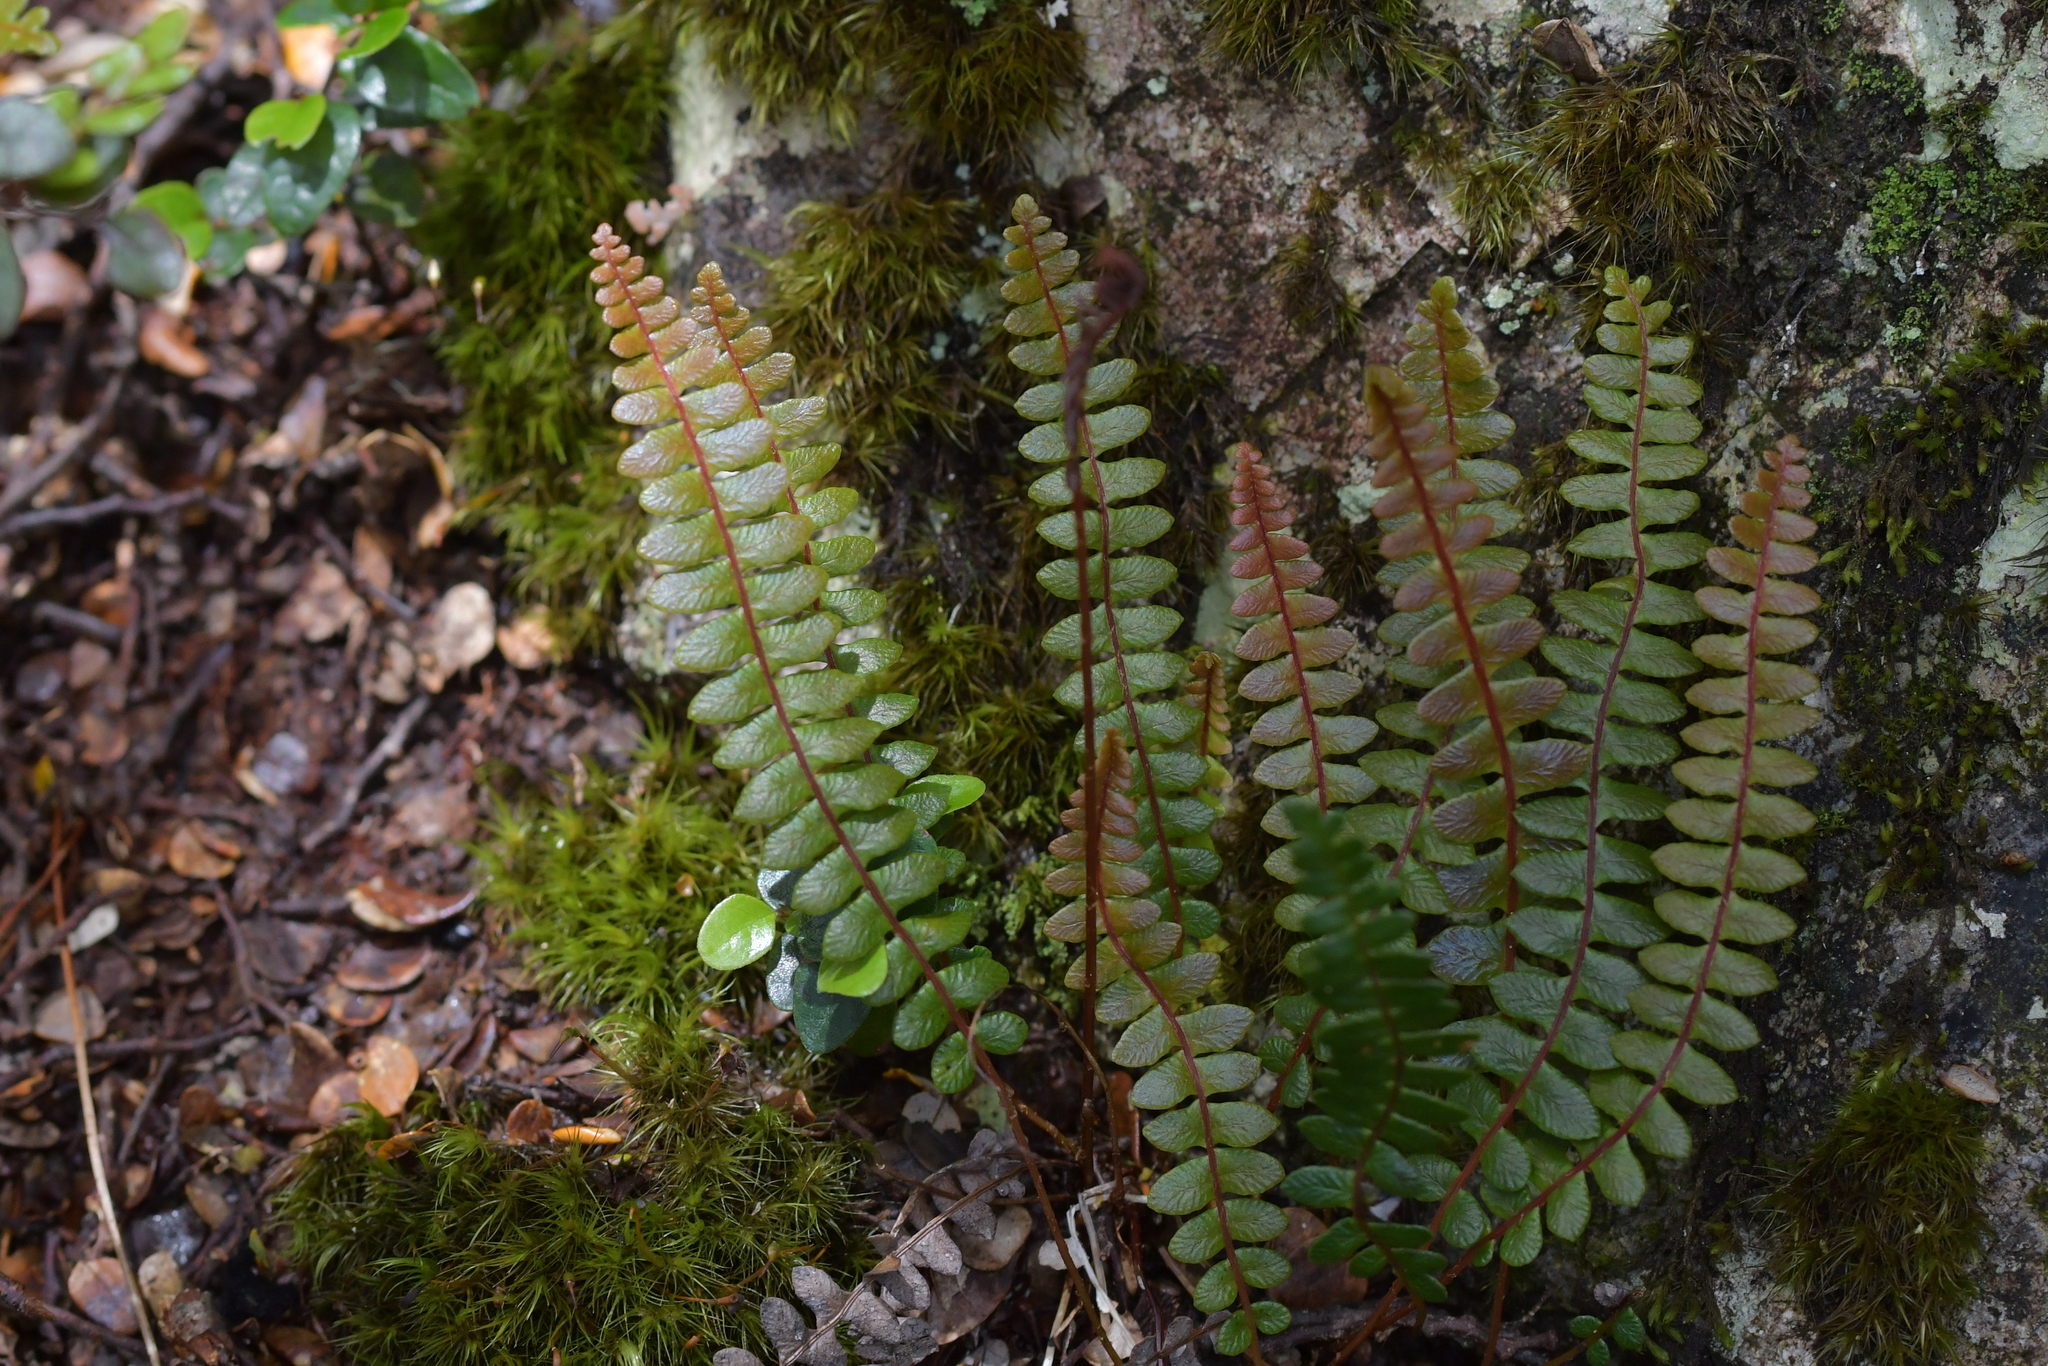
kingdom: Plantae
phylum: Tracheophyta
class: Polypodiopsida
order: Polypodiales
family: Blechnaceae
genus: Austroblechnum
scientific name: Austroblechnum penna-marina
